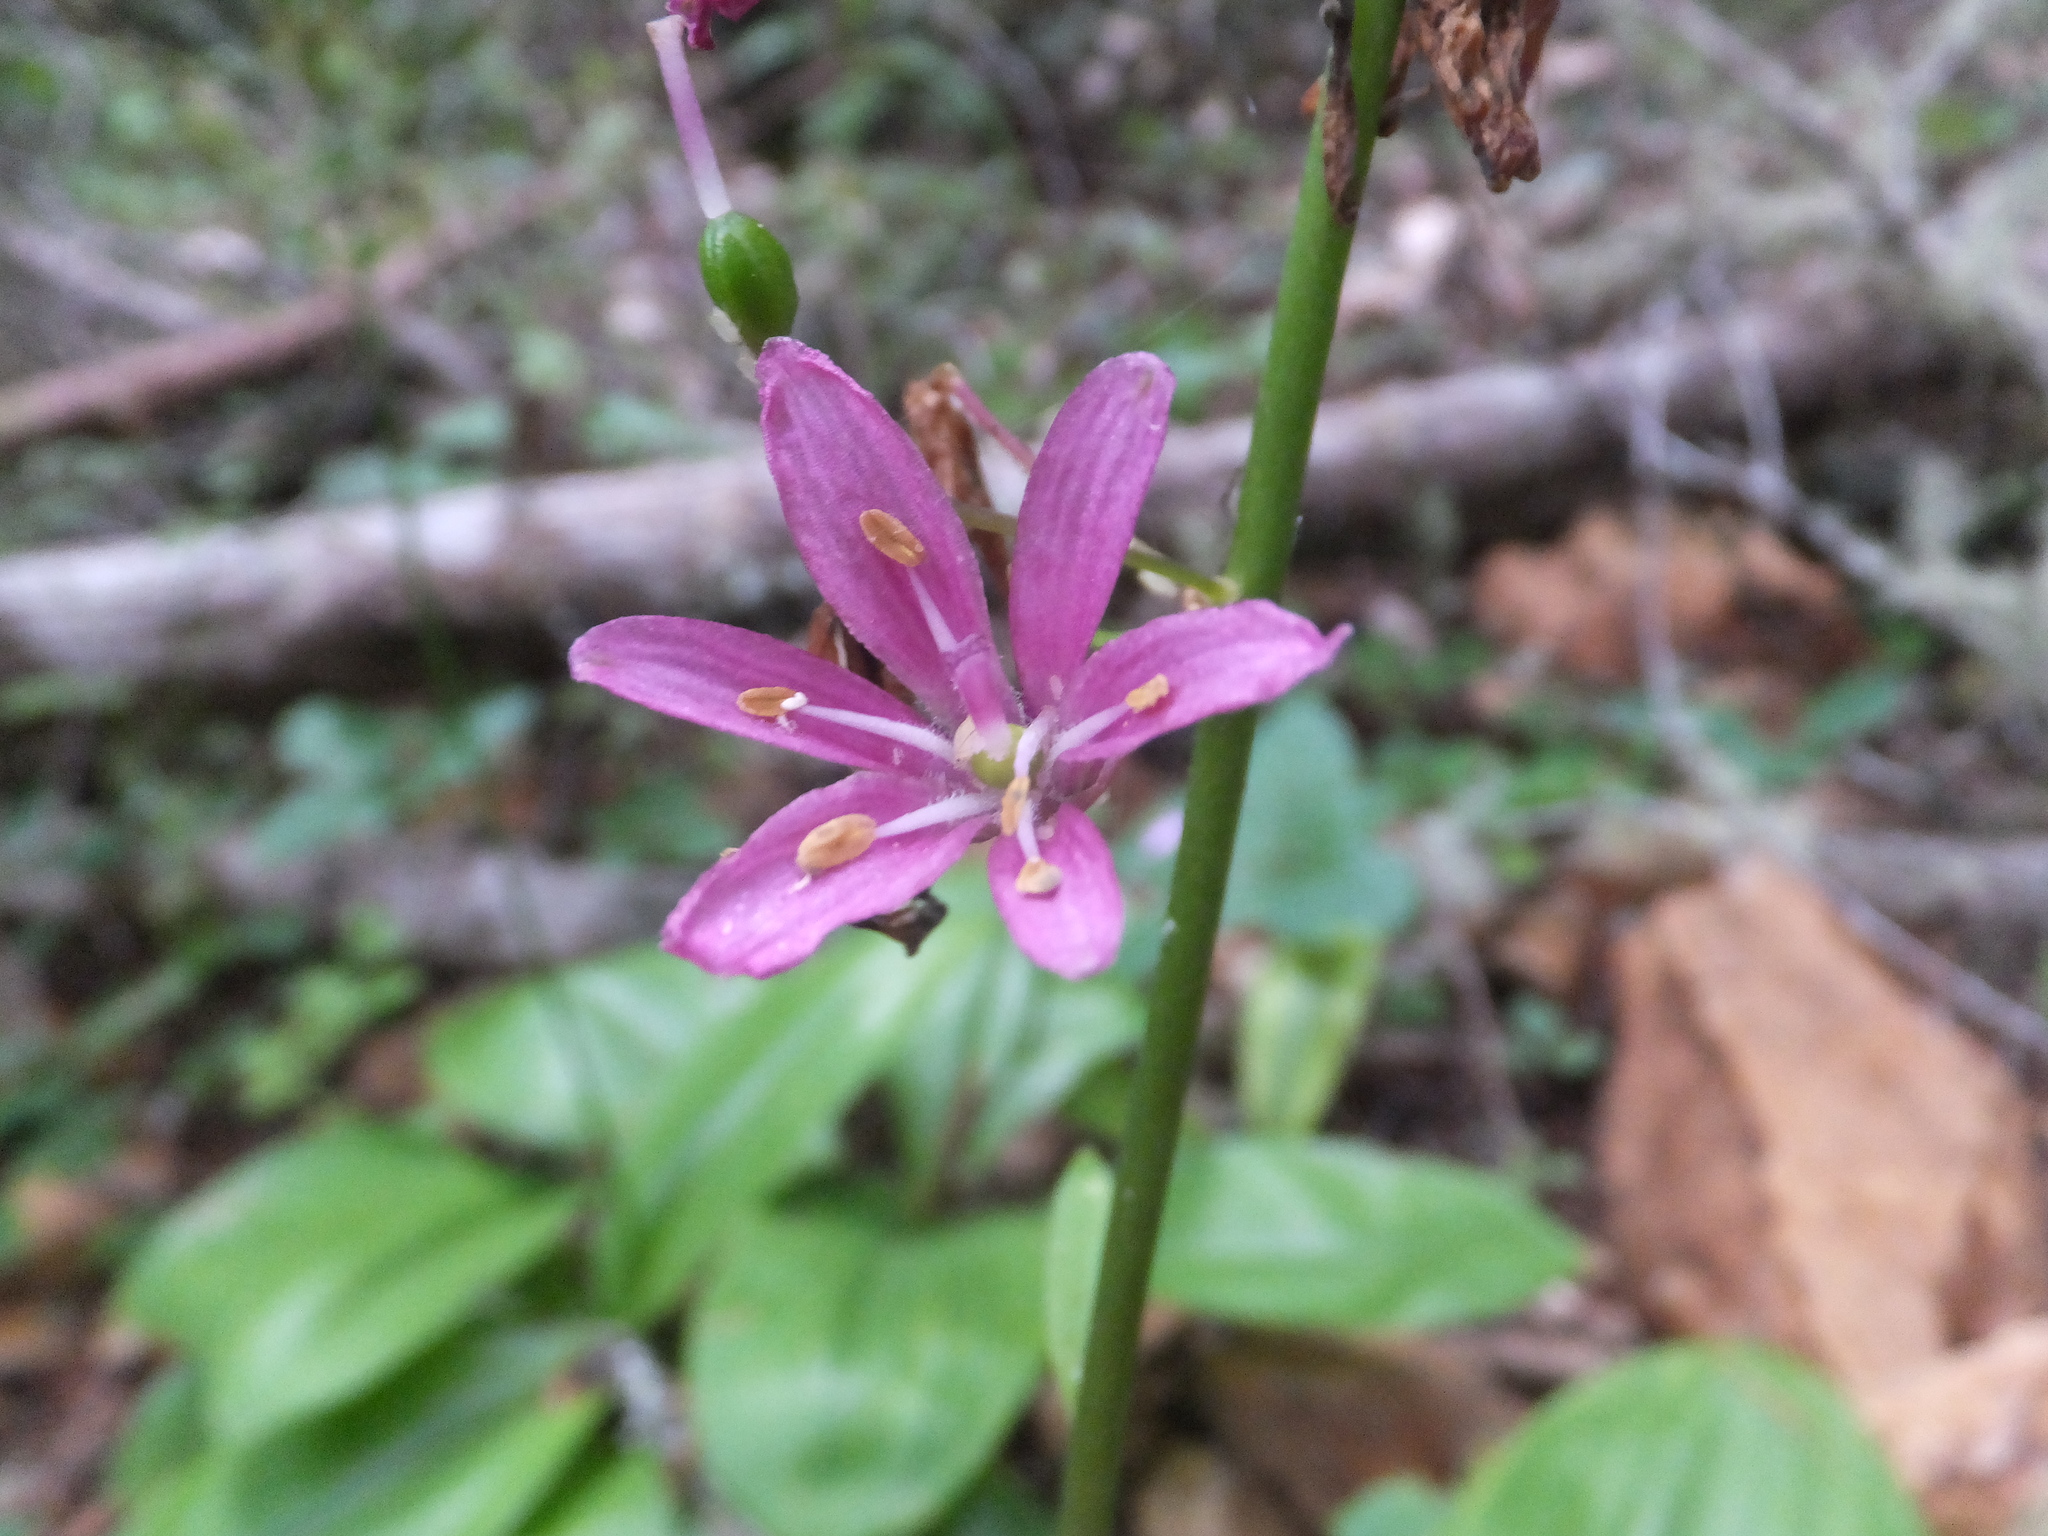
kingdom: Plantae
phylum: Tracheophyta
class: Liliopsida
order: Liliales
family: Liliaceae
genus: Clintonia
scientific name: Clintonia andrewsiana
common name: Red clintonia
